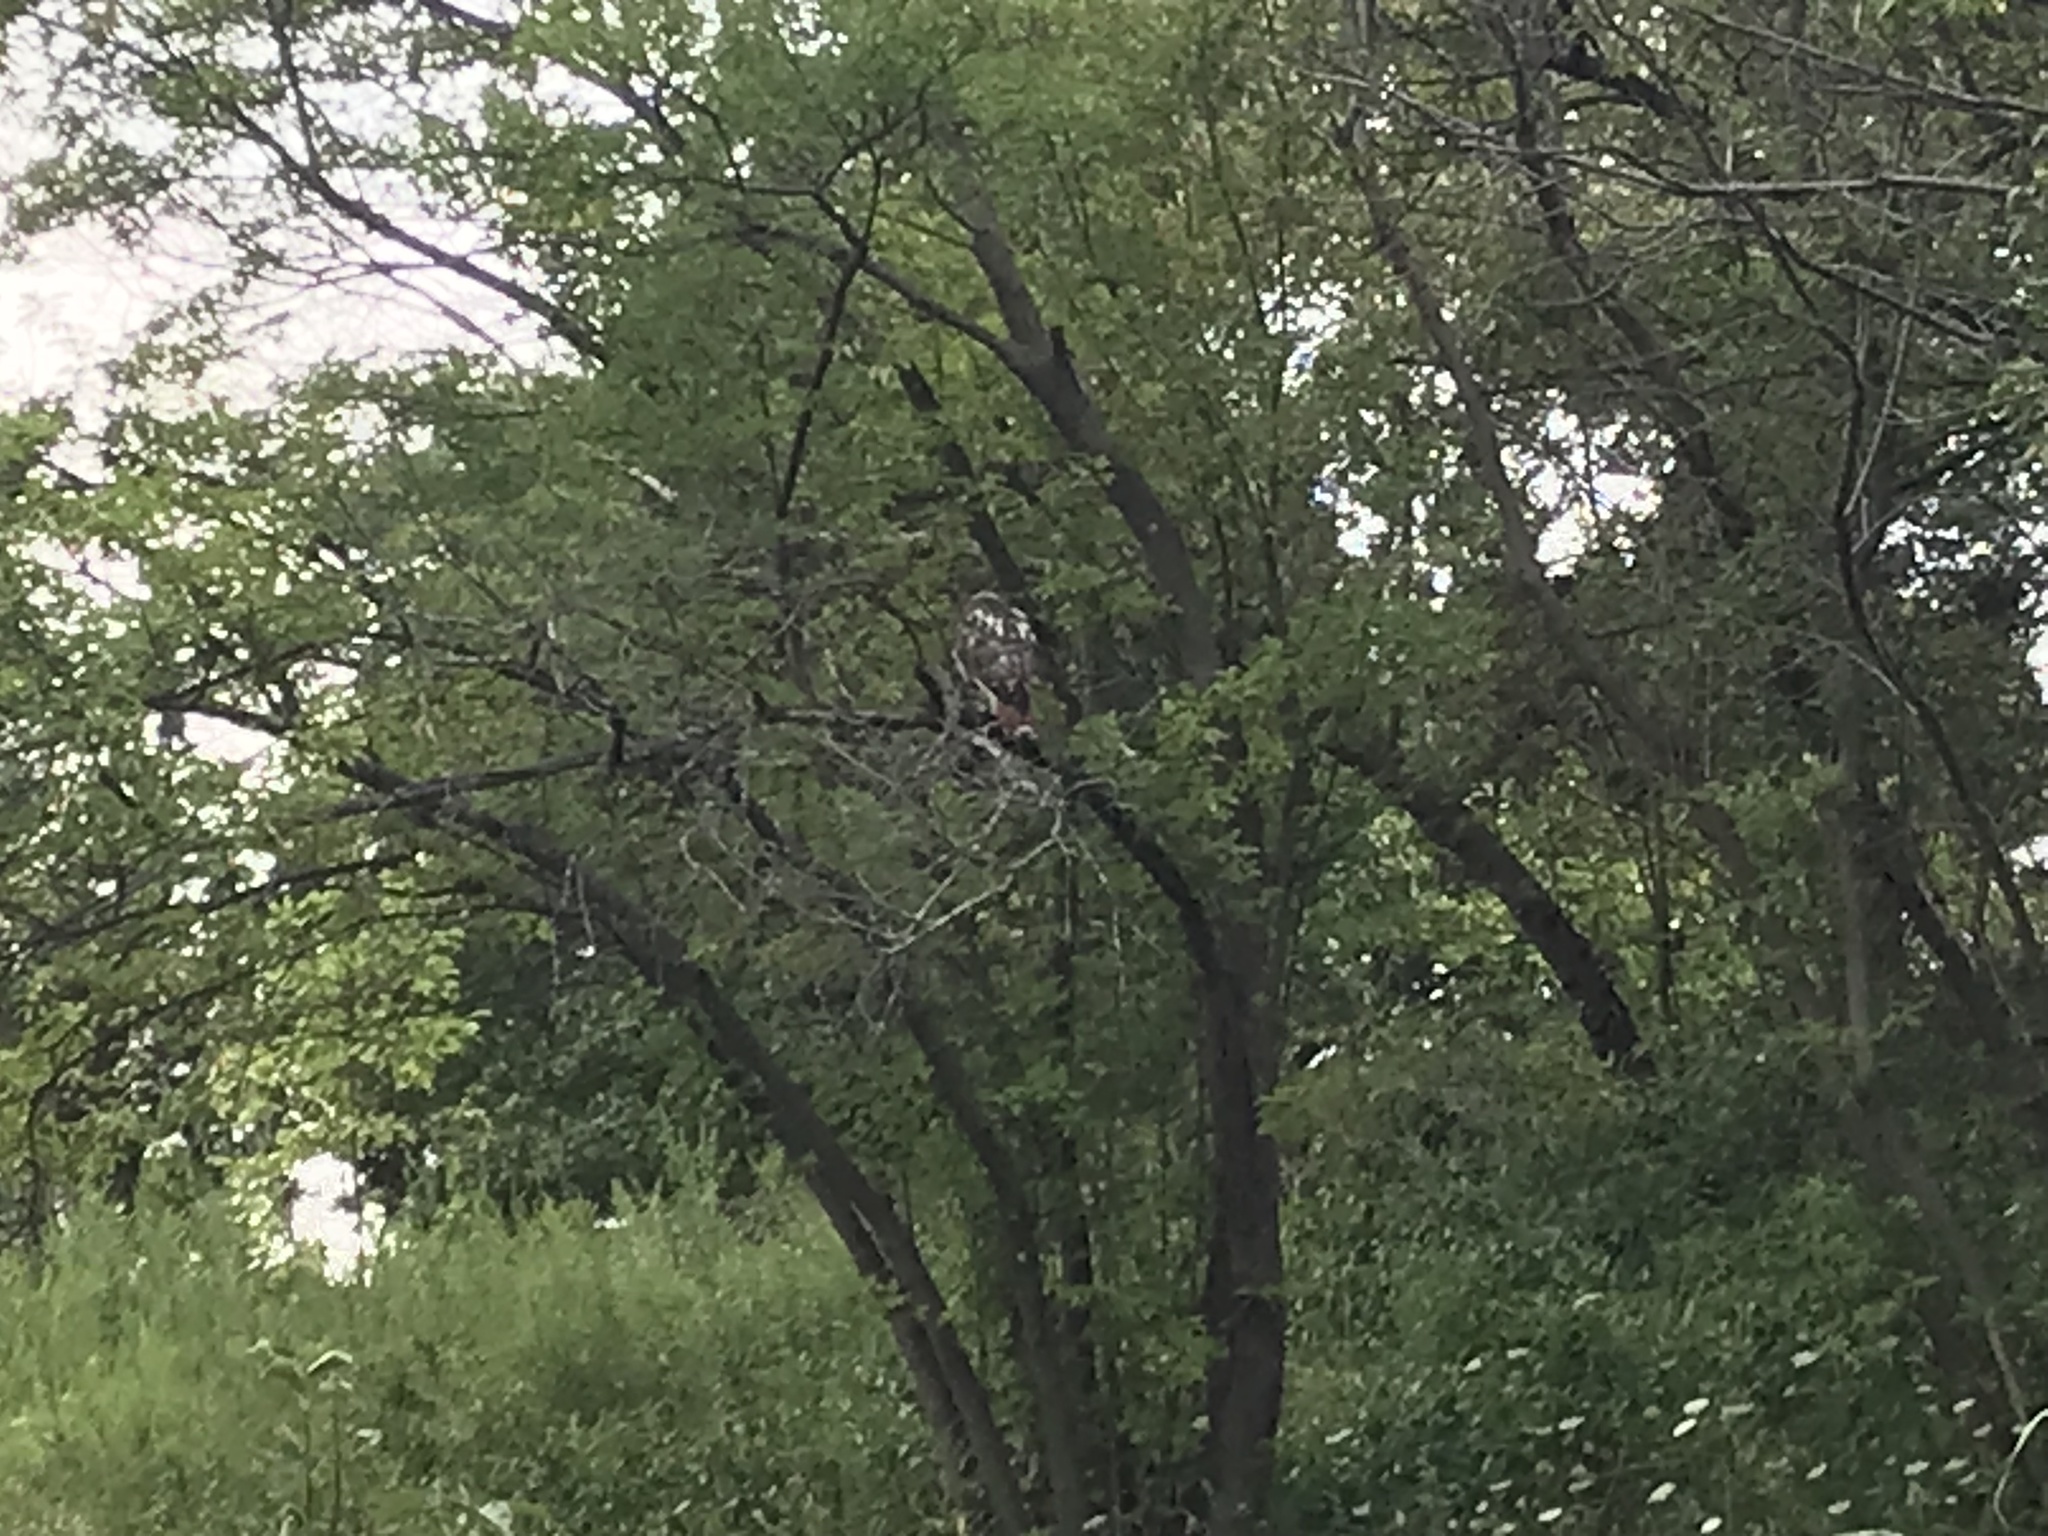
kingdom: Animalia
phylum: Chordata
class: Aves
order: Accipitriformes
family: Accipitridae
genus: Buteo
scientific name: Buteo jamaicensis
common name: Red-tailed hawk
